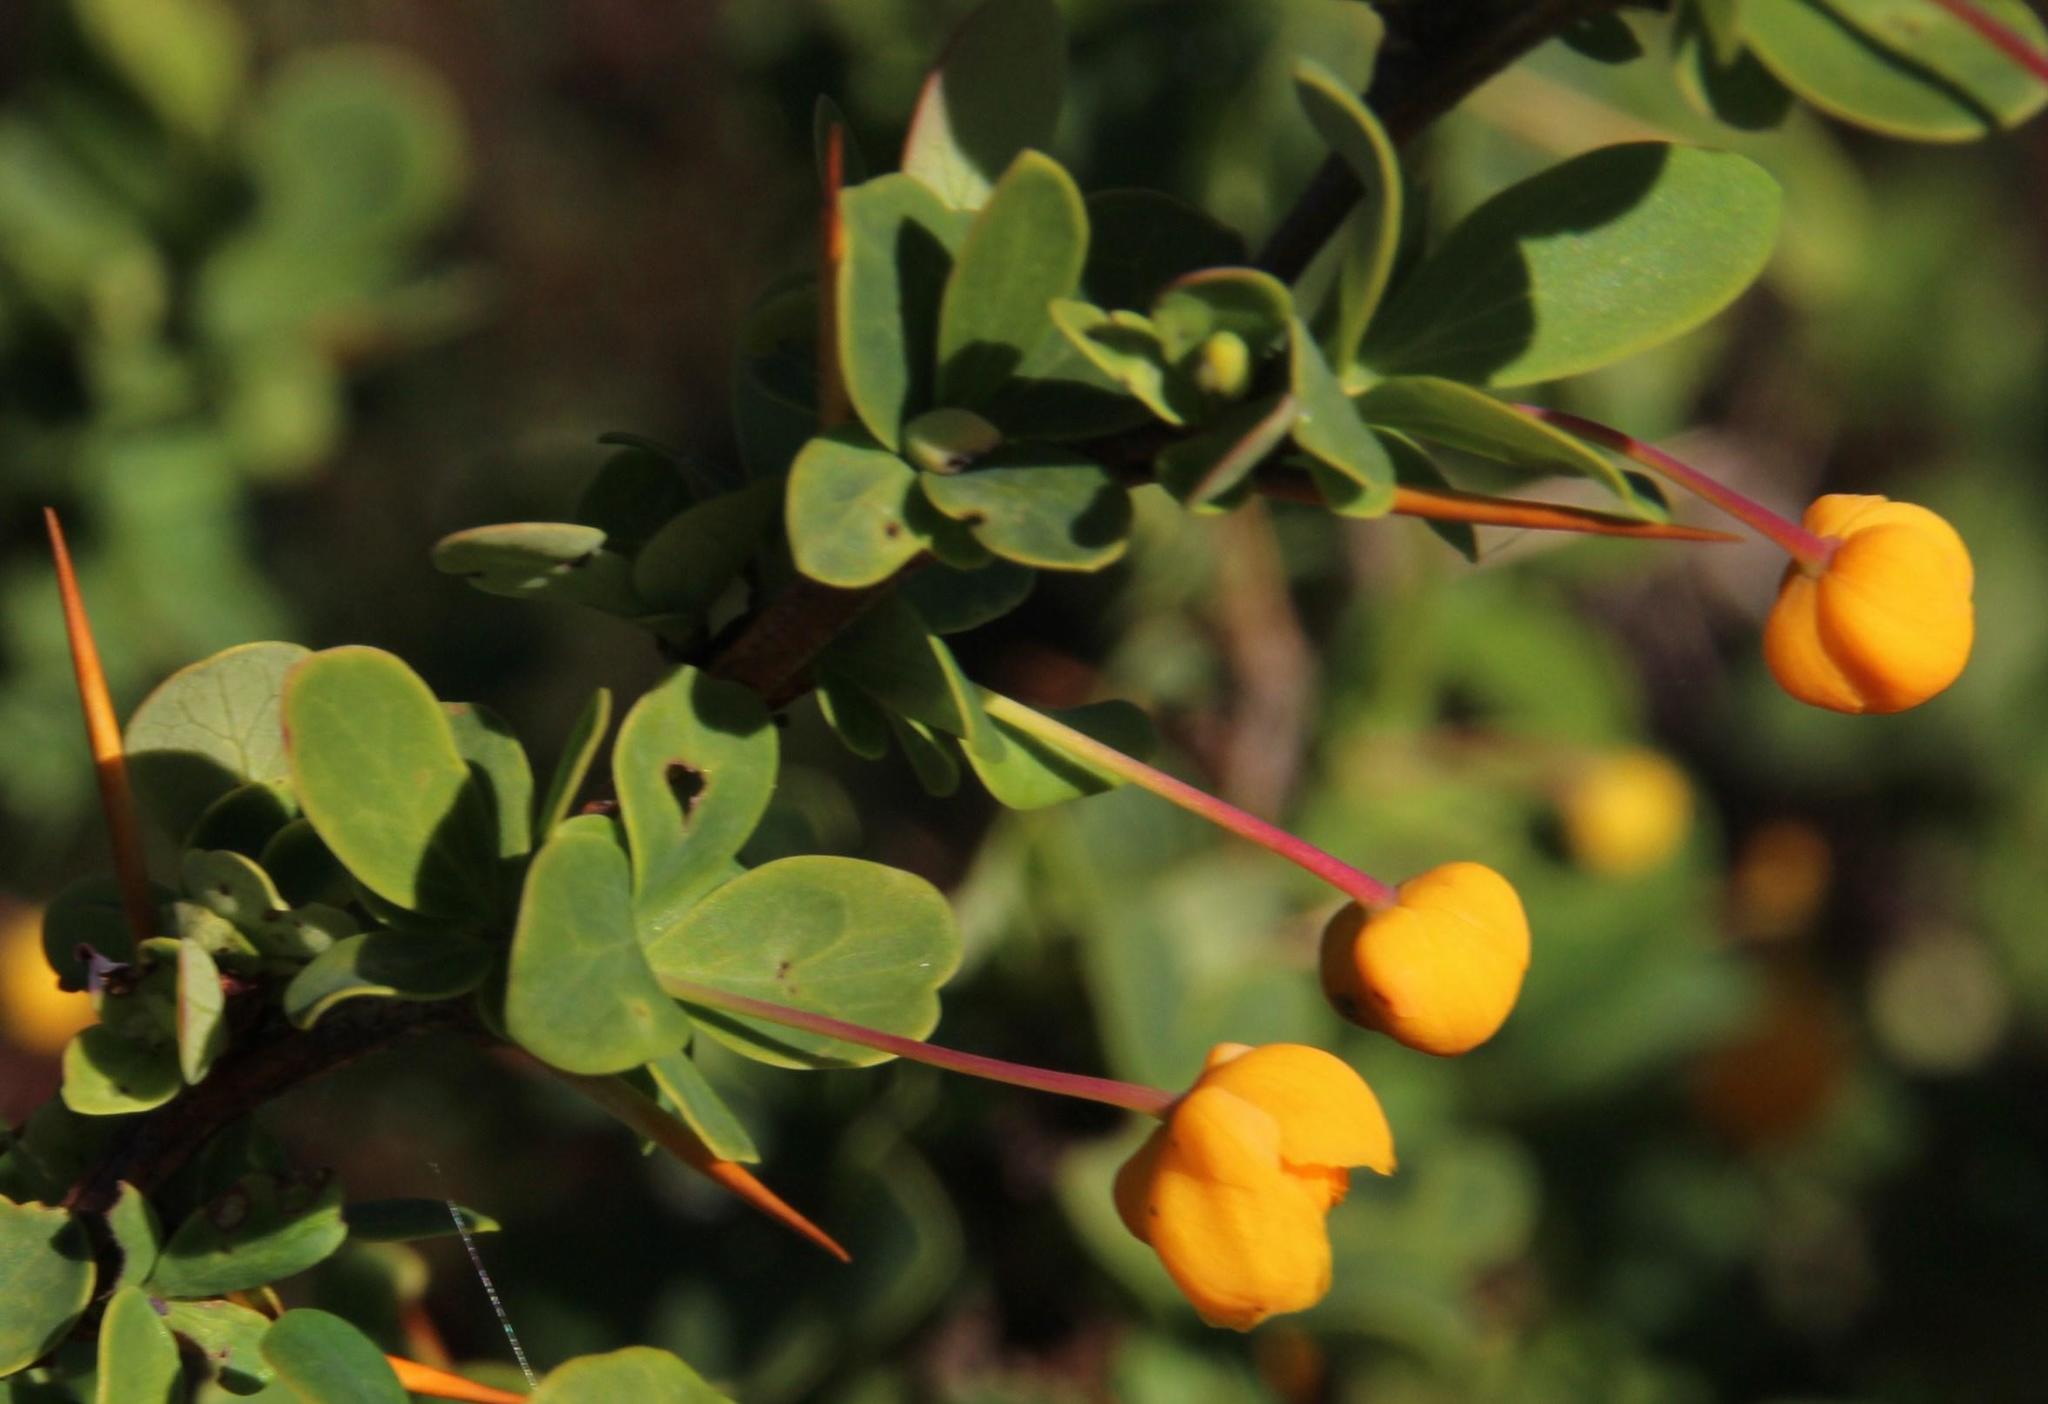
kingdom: Plantae
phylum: Tracheophyta
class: Magnoliopsida
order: Ranunculales
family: Berberidaceae
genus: Berberis
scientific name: Berberis microphylla
